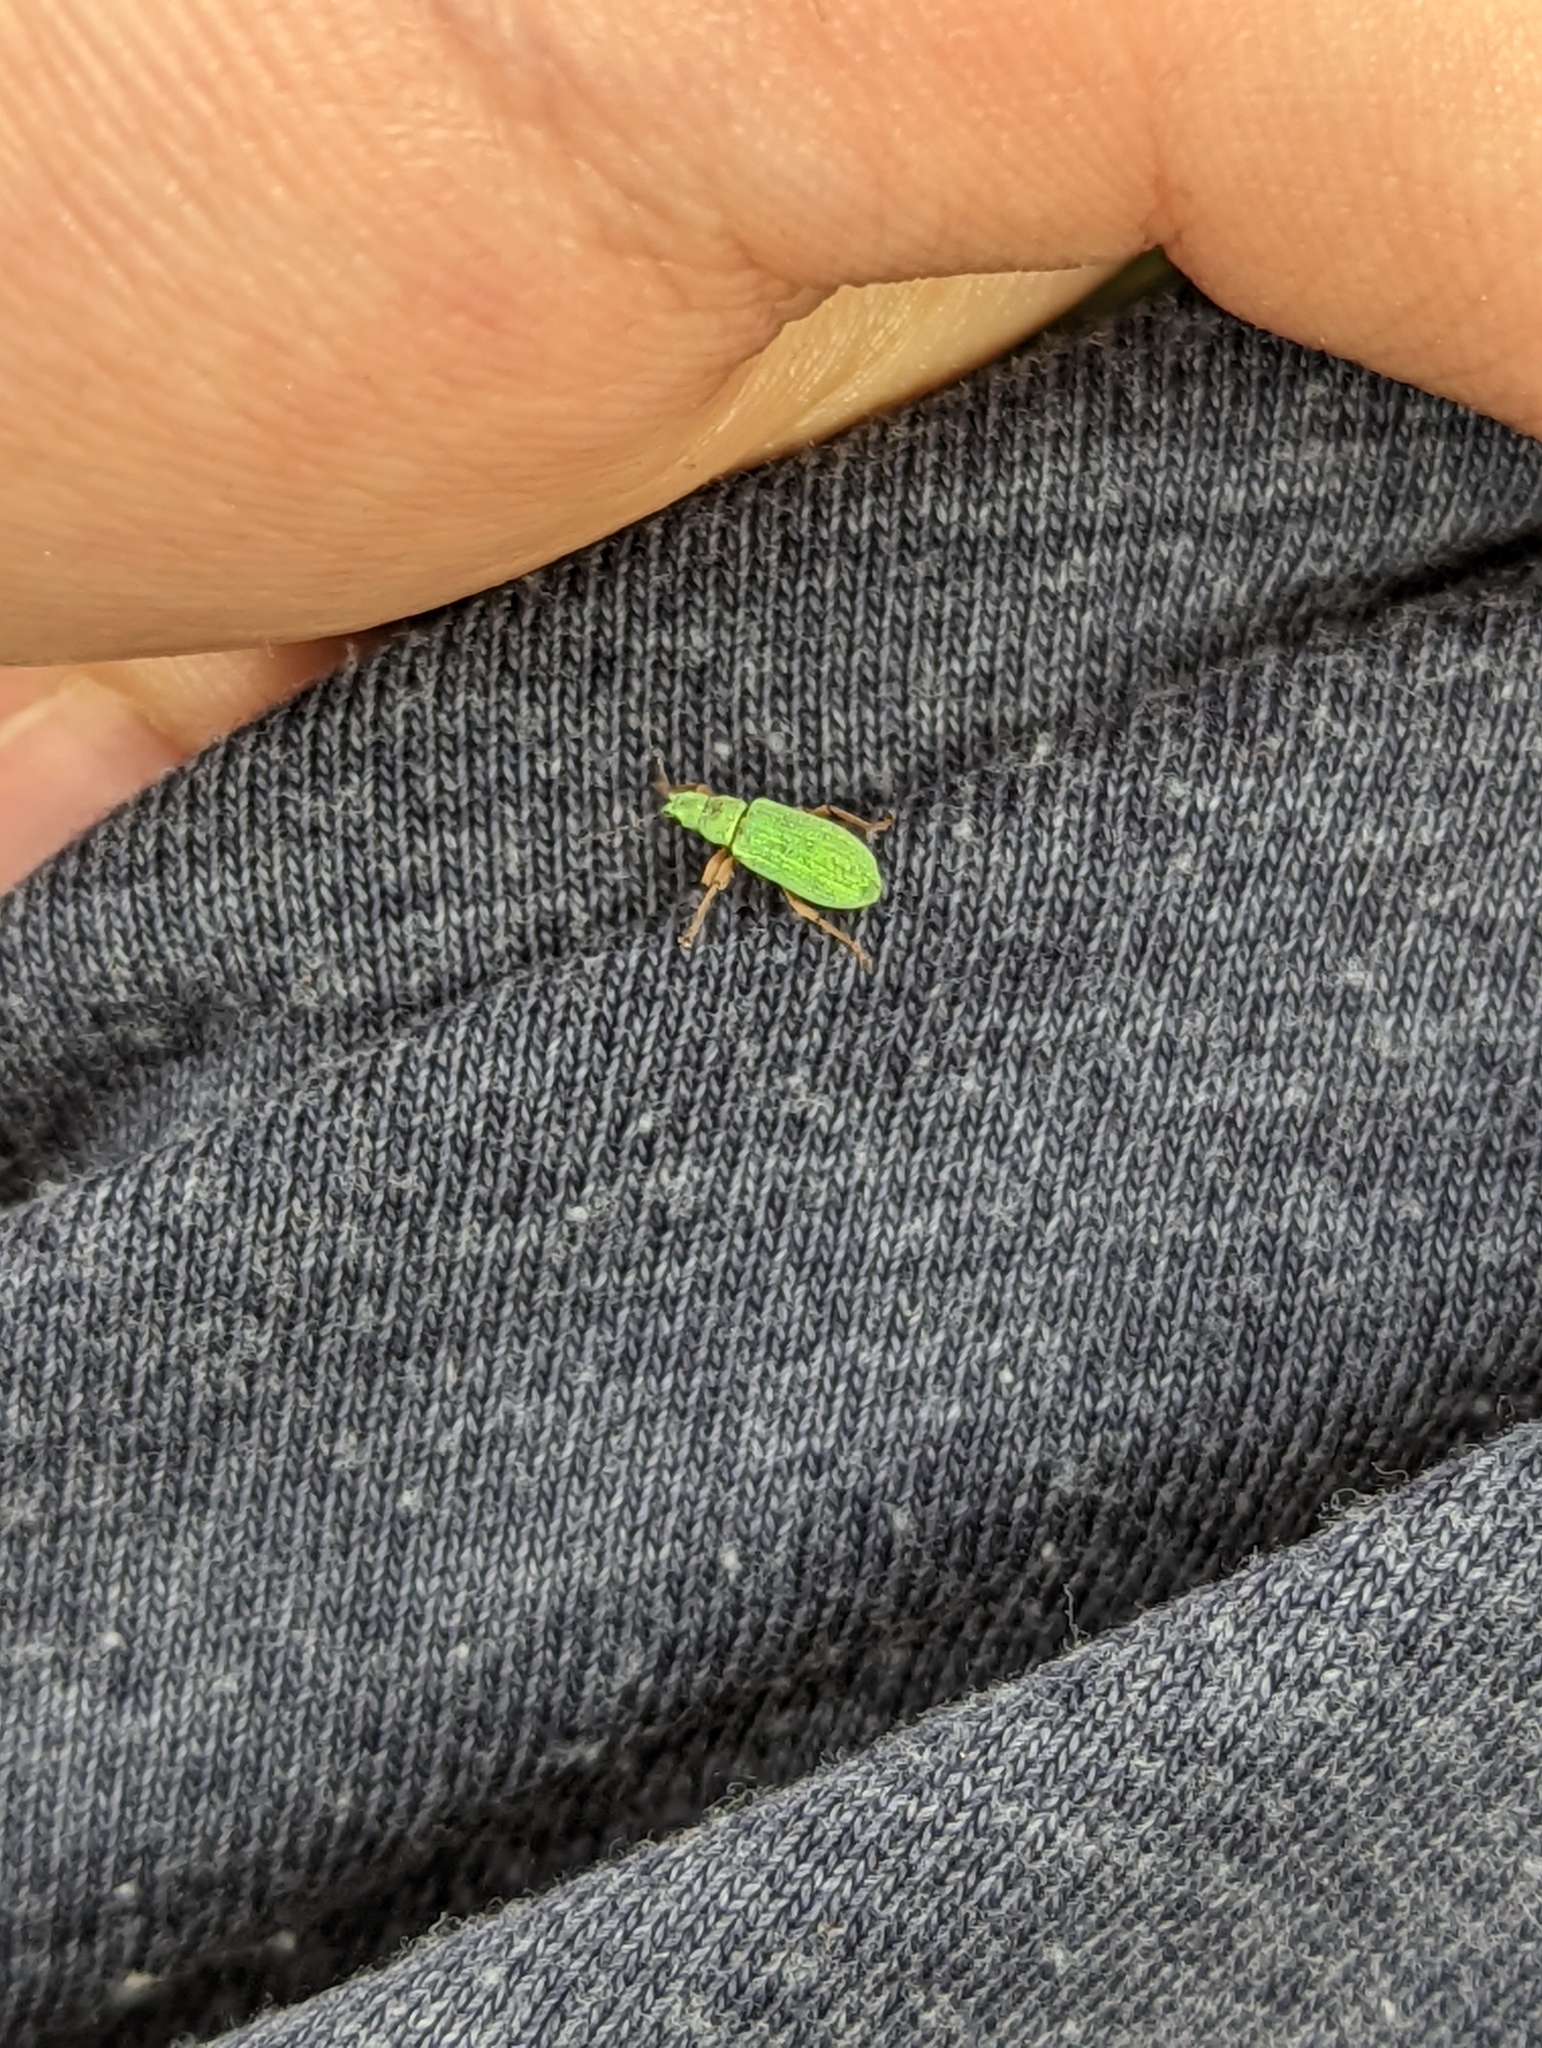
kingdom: Animalia
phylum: Arthropoda
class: Insecta
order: Coleoptera
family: Curculionidae
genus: Polydrusus
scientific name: Polydrusus impressifrons
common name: Weevil
